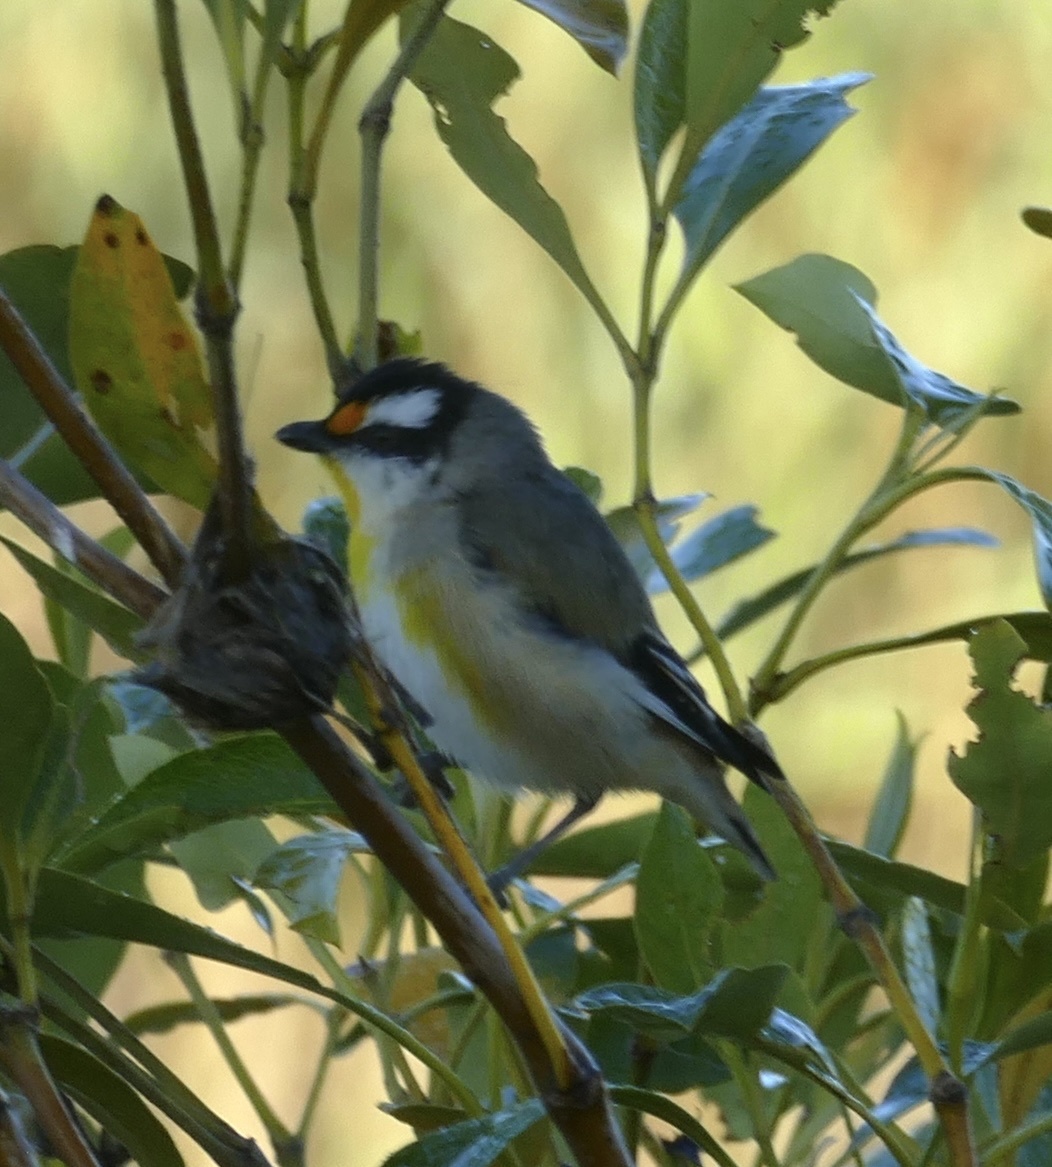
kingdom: Animalia
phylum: Chordata
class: Aves
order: Passeriformes
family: Pardalotidae
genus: Pardalotus
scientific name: Pardalotus striatus
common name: Striated pardalote
